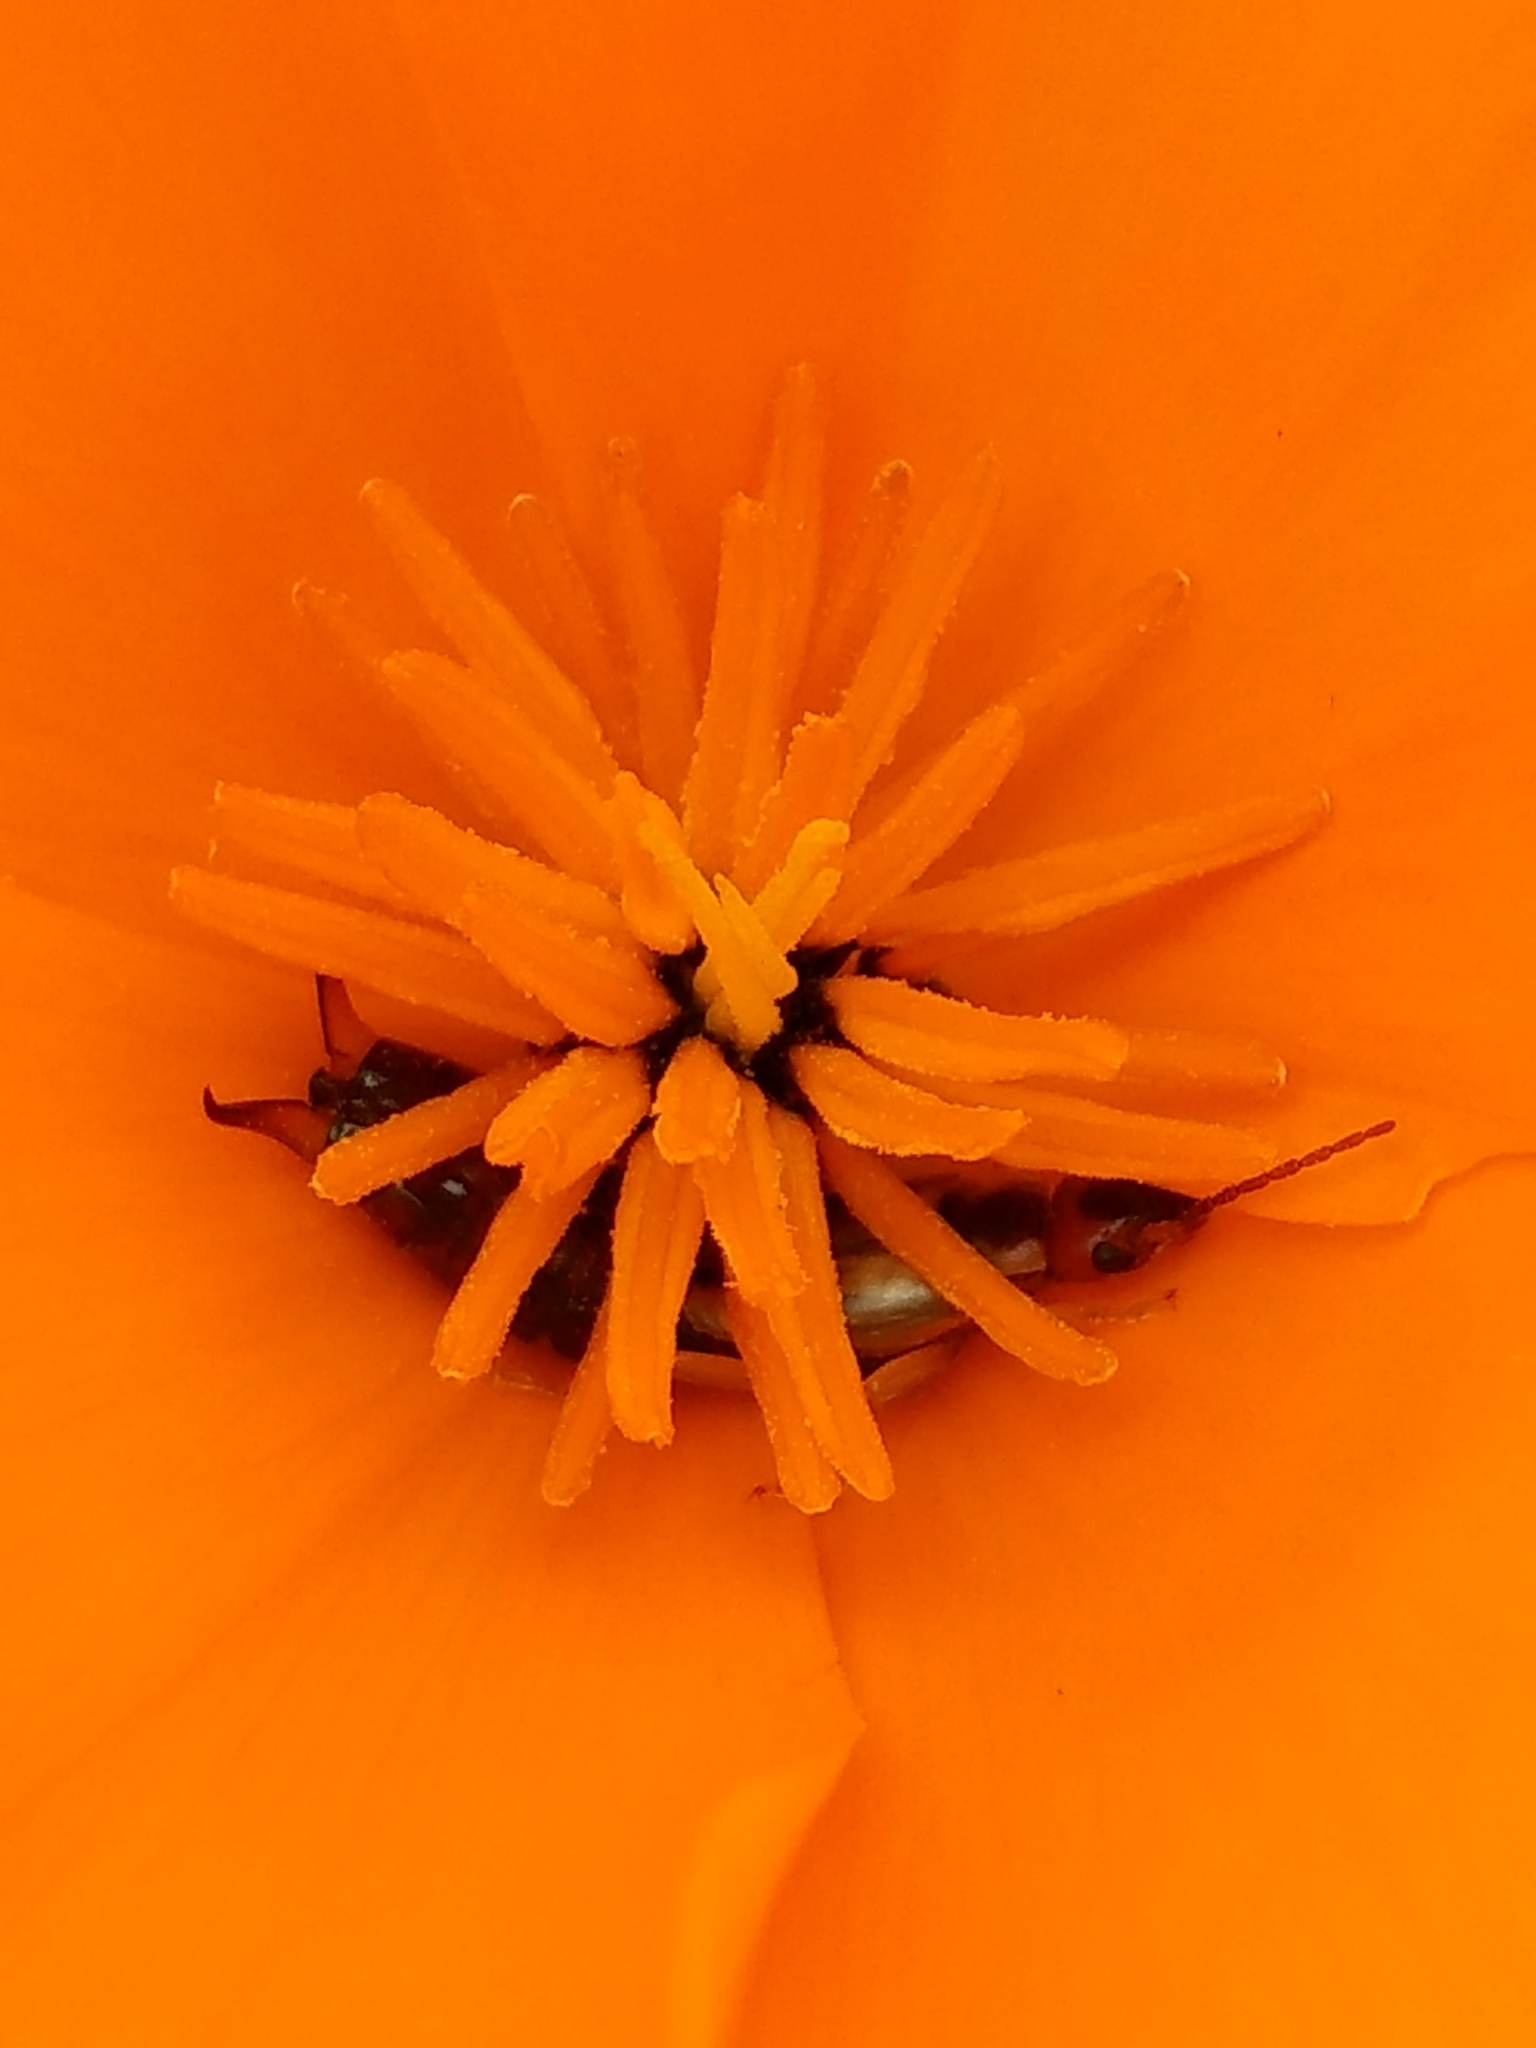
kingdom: Animalia
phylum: Arthropoda
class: Insecta
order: Dermaptera
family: Forficulidae
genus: Forficula
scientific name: Forficula
